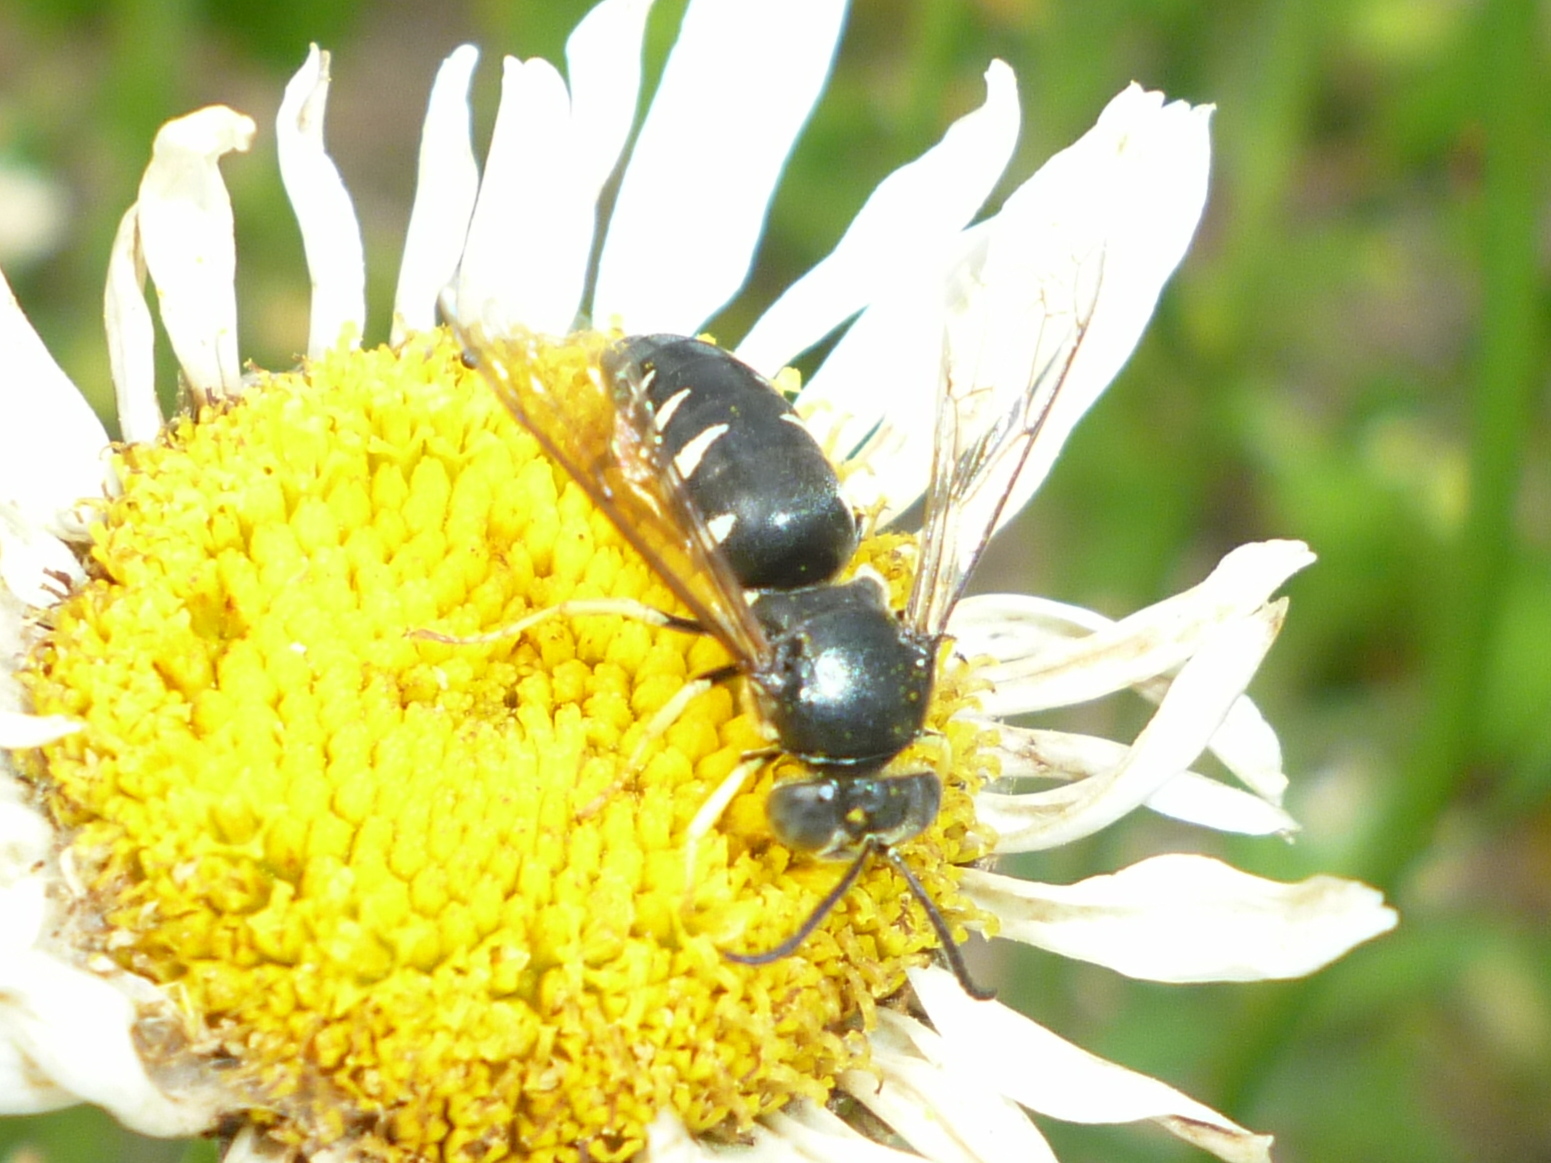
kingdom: Animalia
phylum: Arthropoda
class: Insecta
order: Hymenoptera
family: Crabronidae
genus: Bicyrtes
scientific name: Bicyrtes quadrifasciatus
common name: Four-banded stink bug hunter wasp
